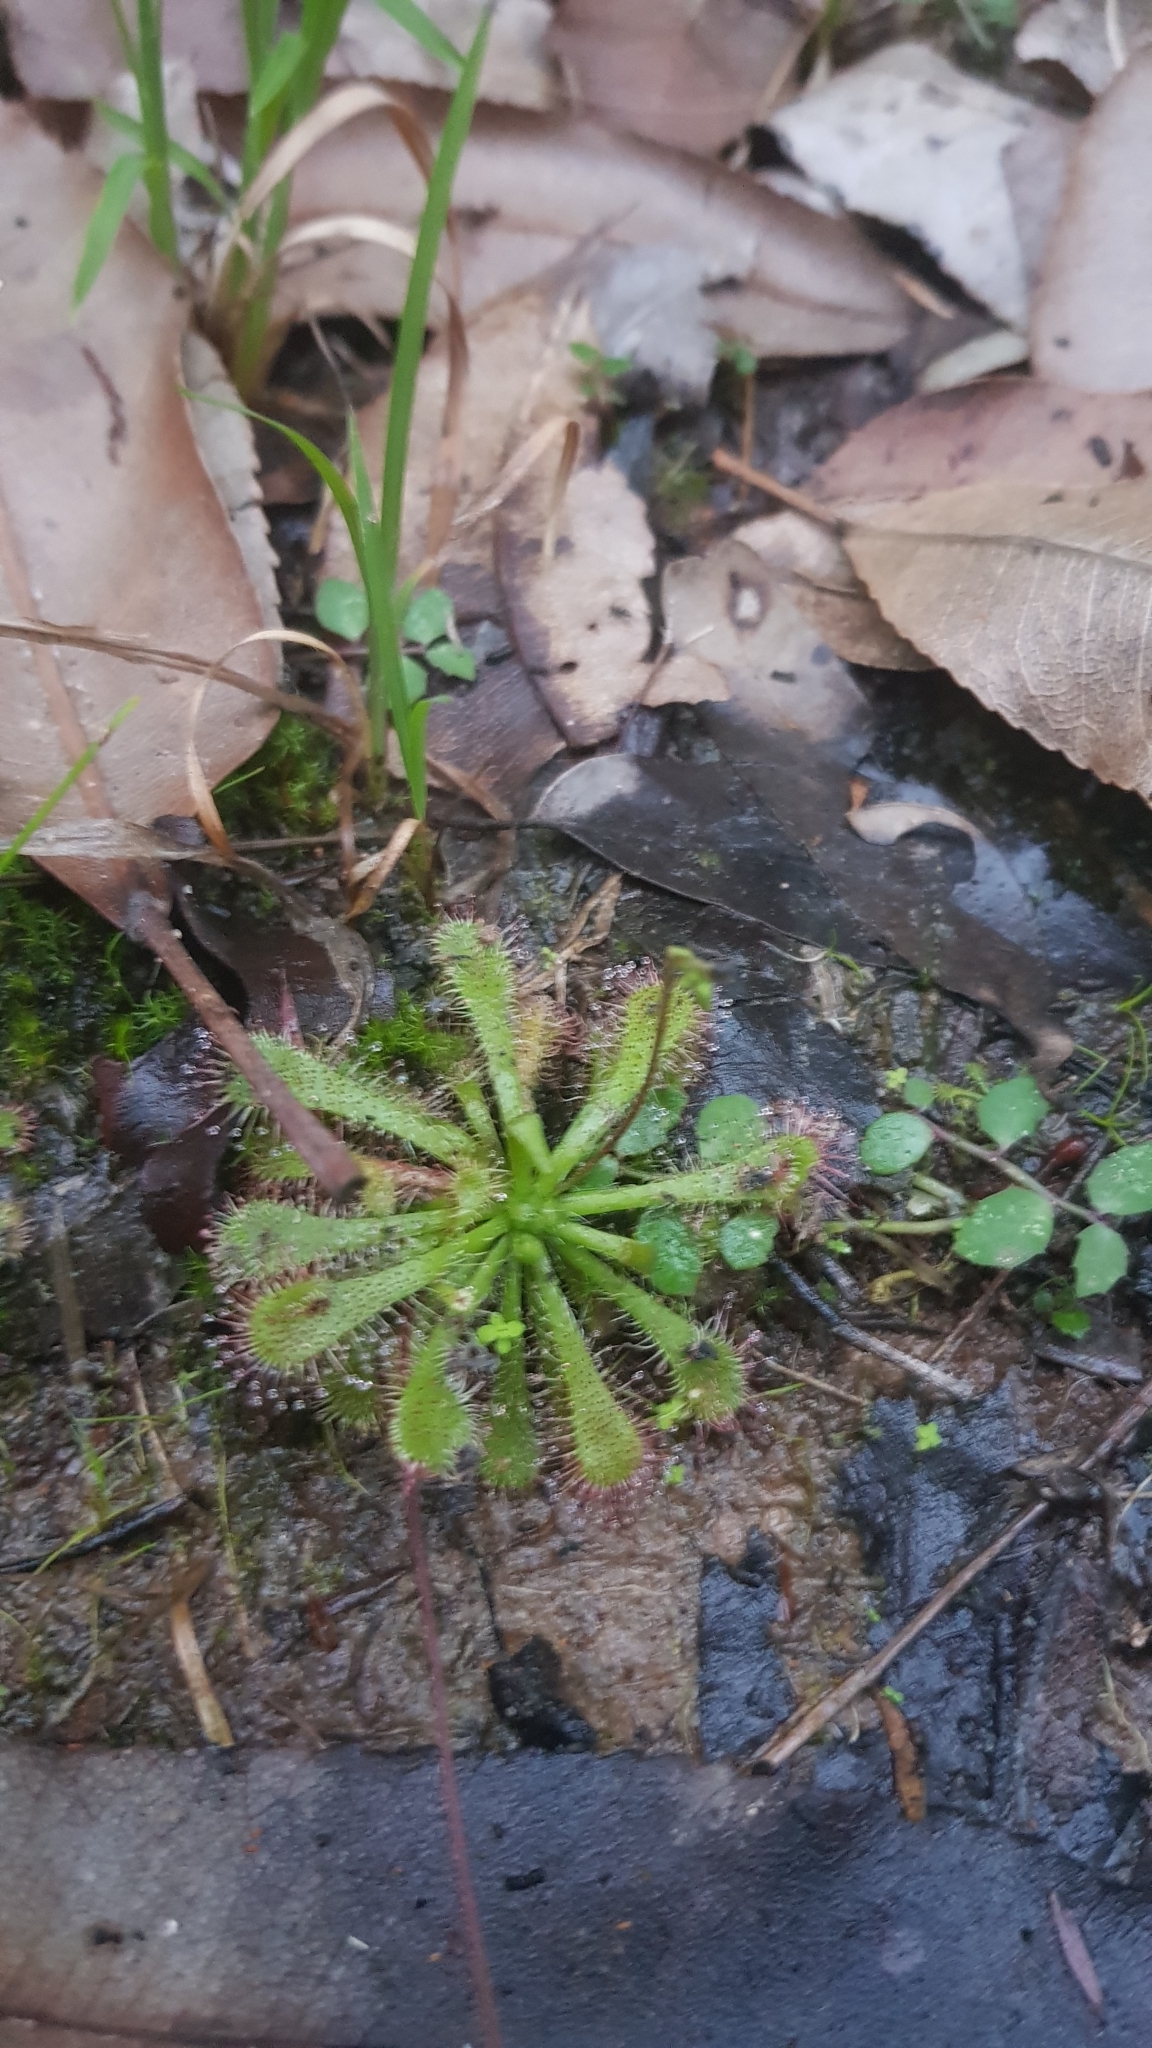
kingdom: Plantae
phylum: Tracheophyta
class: Magnoliopsida
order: Caryophyllales
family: Droseraceae
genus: Drosera
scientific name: Drosera spatulata
